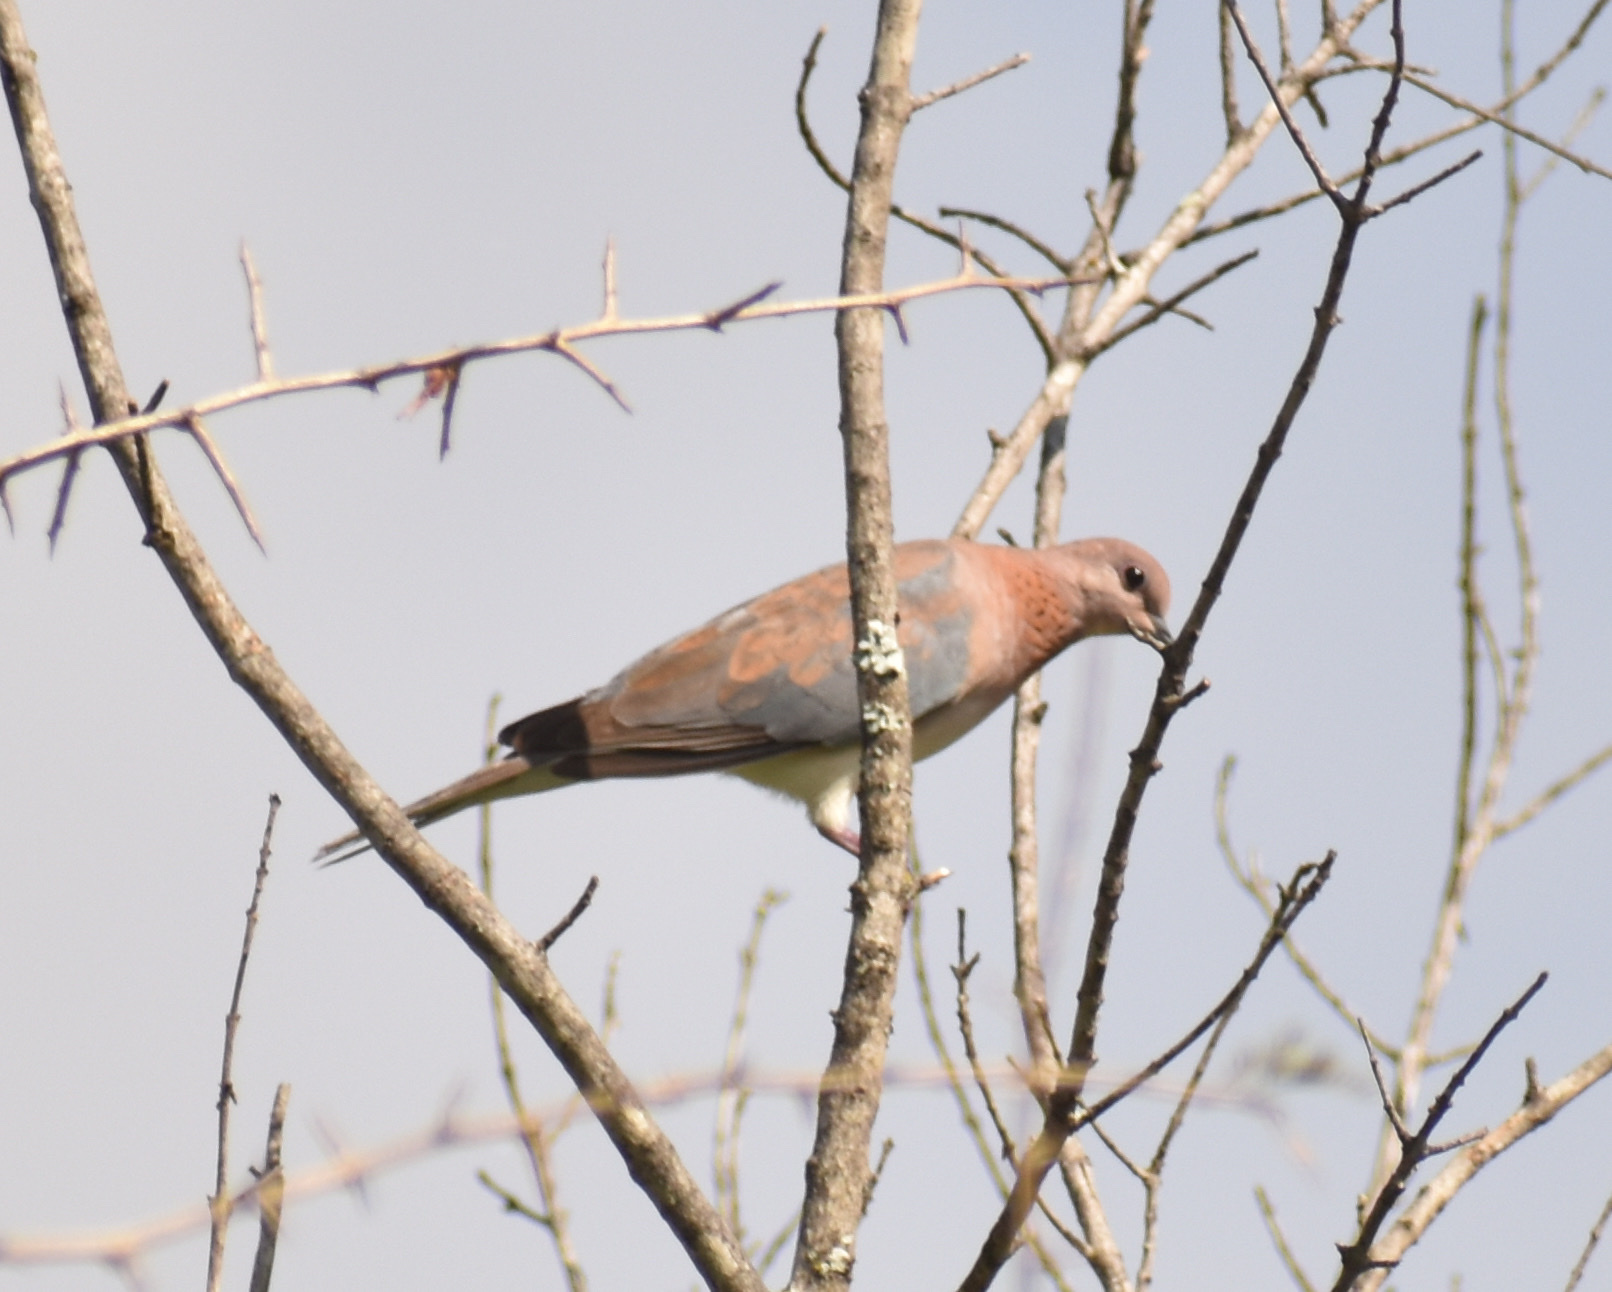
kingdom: Animalia
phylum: Chordata
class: Aves
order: Columbiformes
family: Columbidae
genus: Spilopelia
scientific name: Spilopelia senegalensis
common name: Laughing dove
